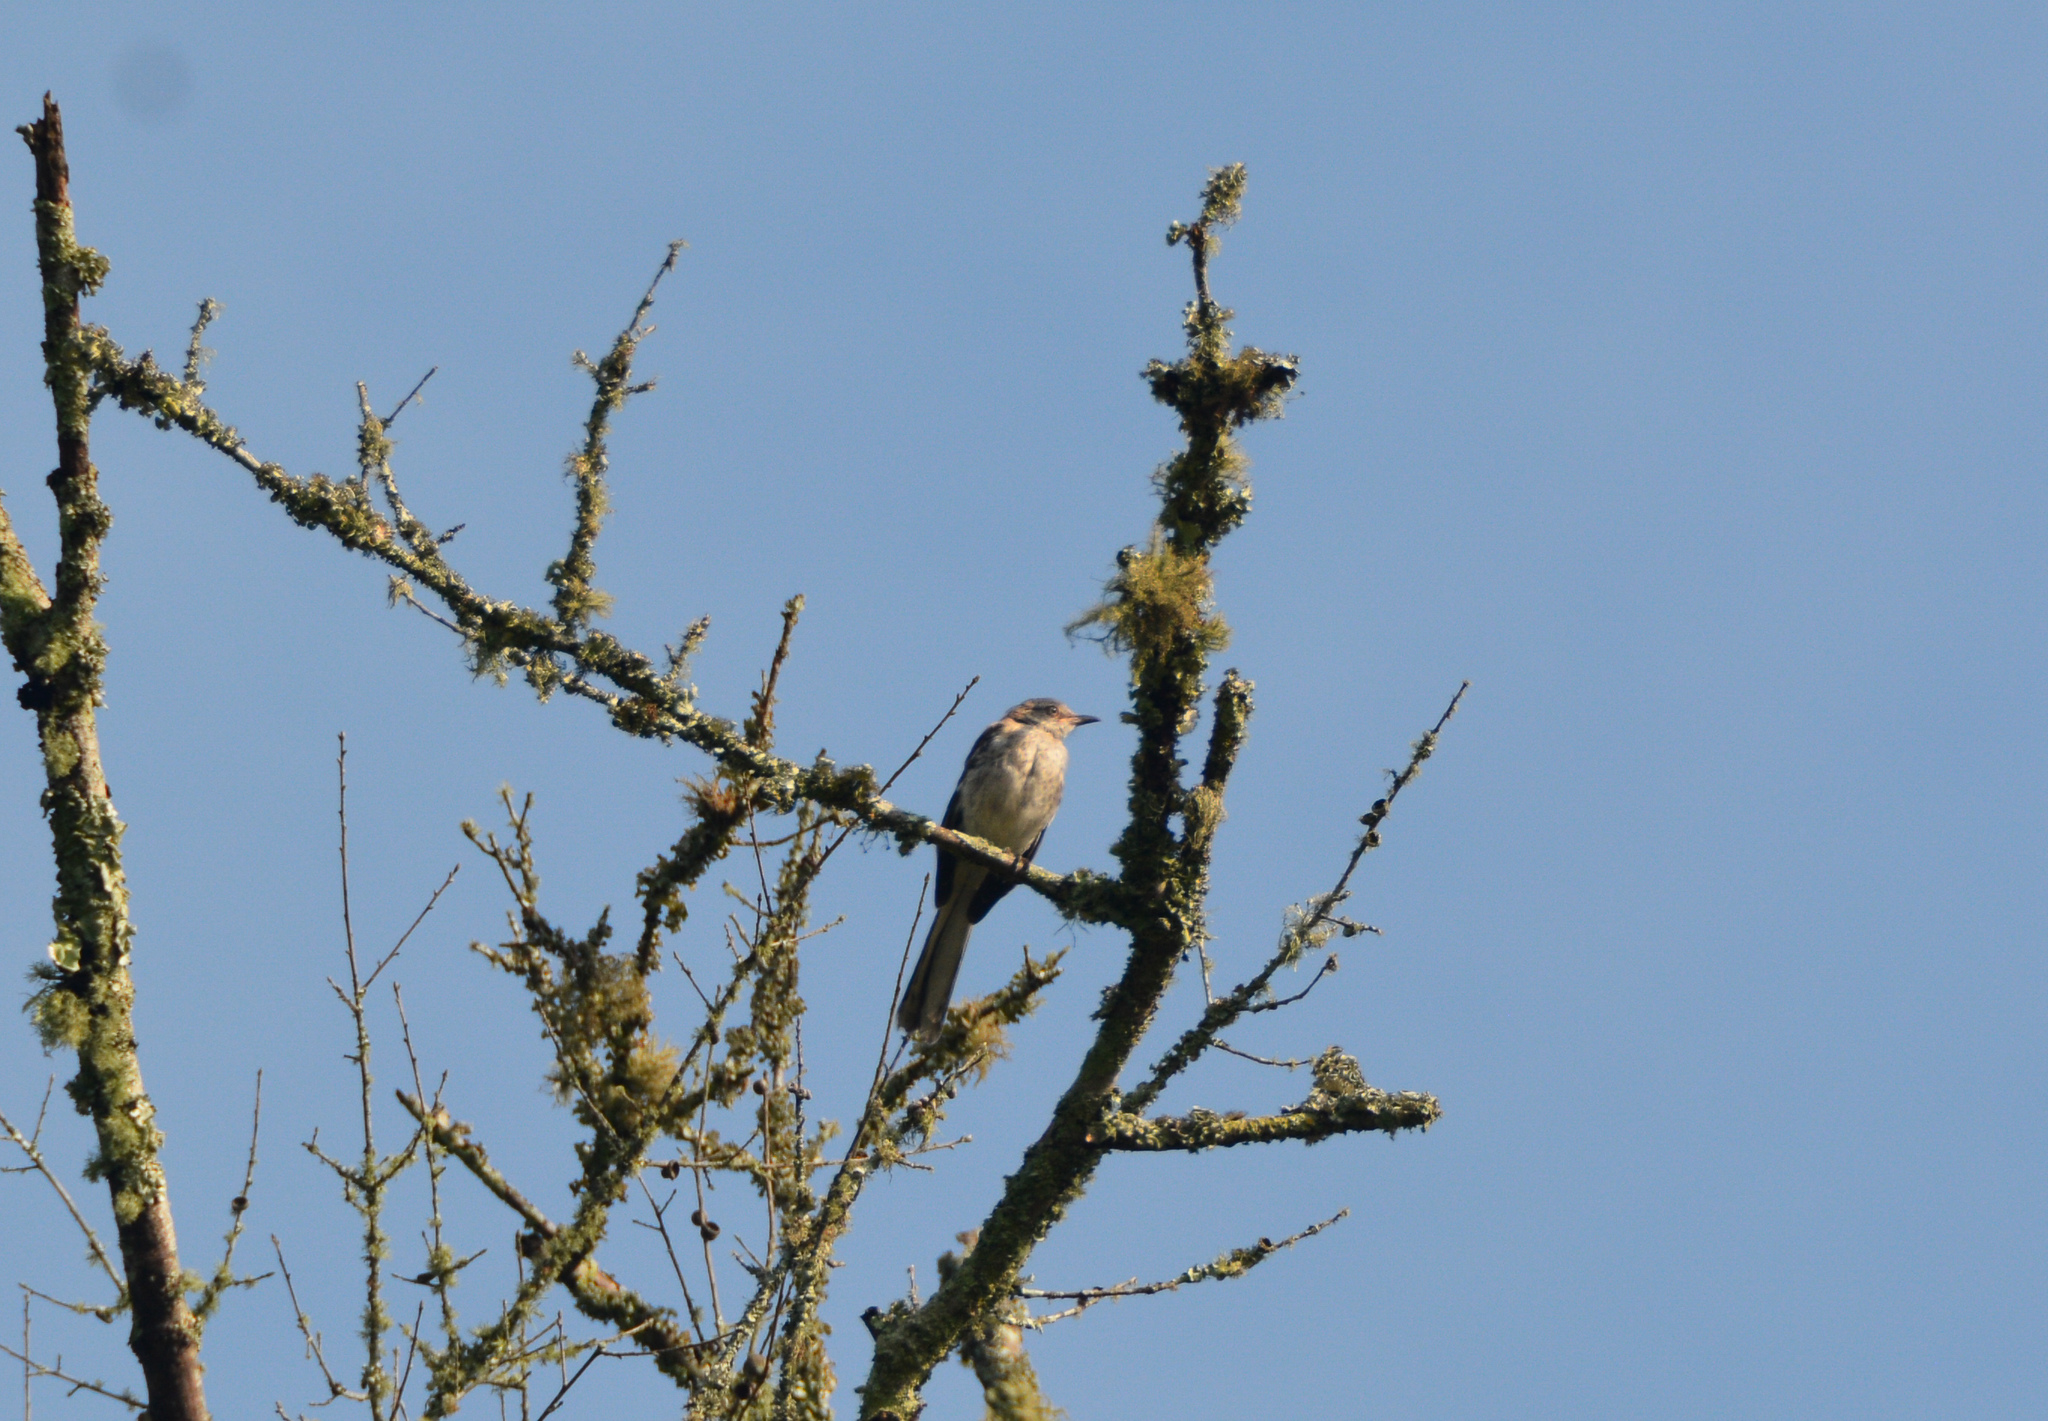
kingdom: Animalia
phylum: Chordata
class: Aves
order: Passeriformes
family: Mimidae
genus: Mimus
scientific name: Mimus polyglottos
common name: Northern mockingbird
